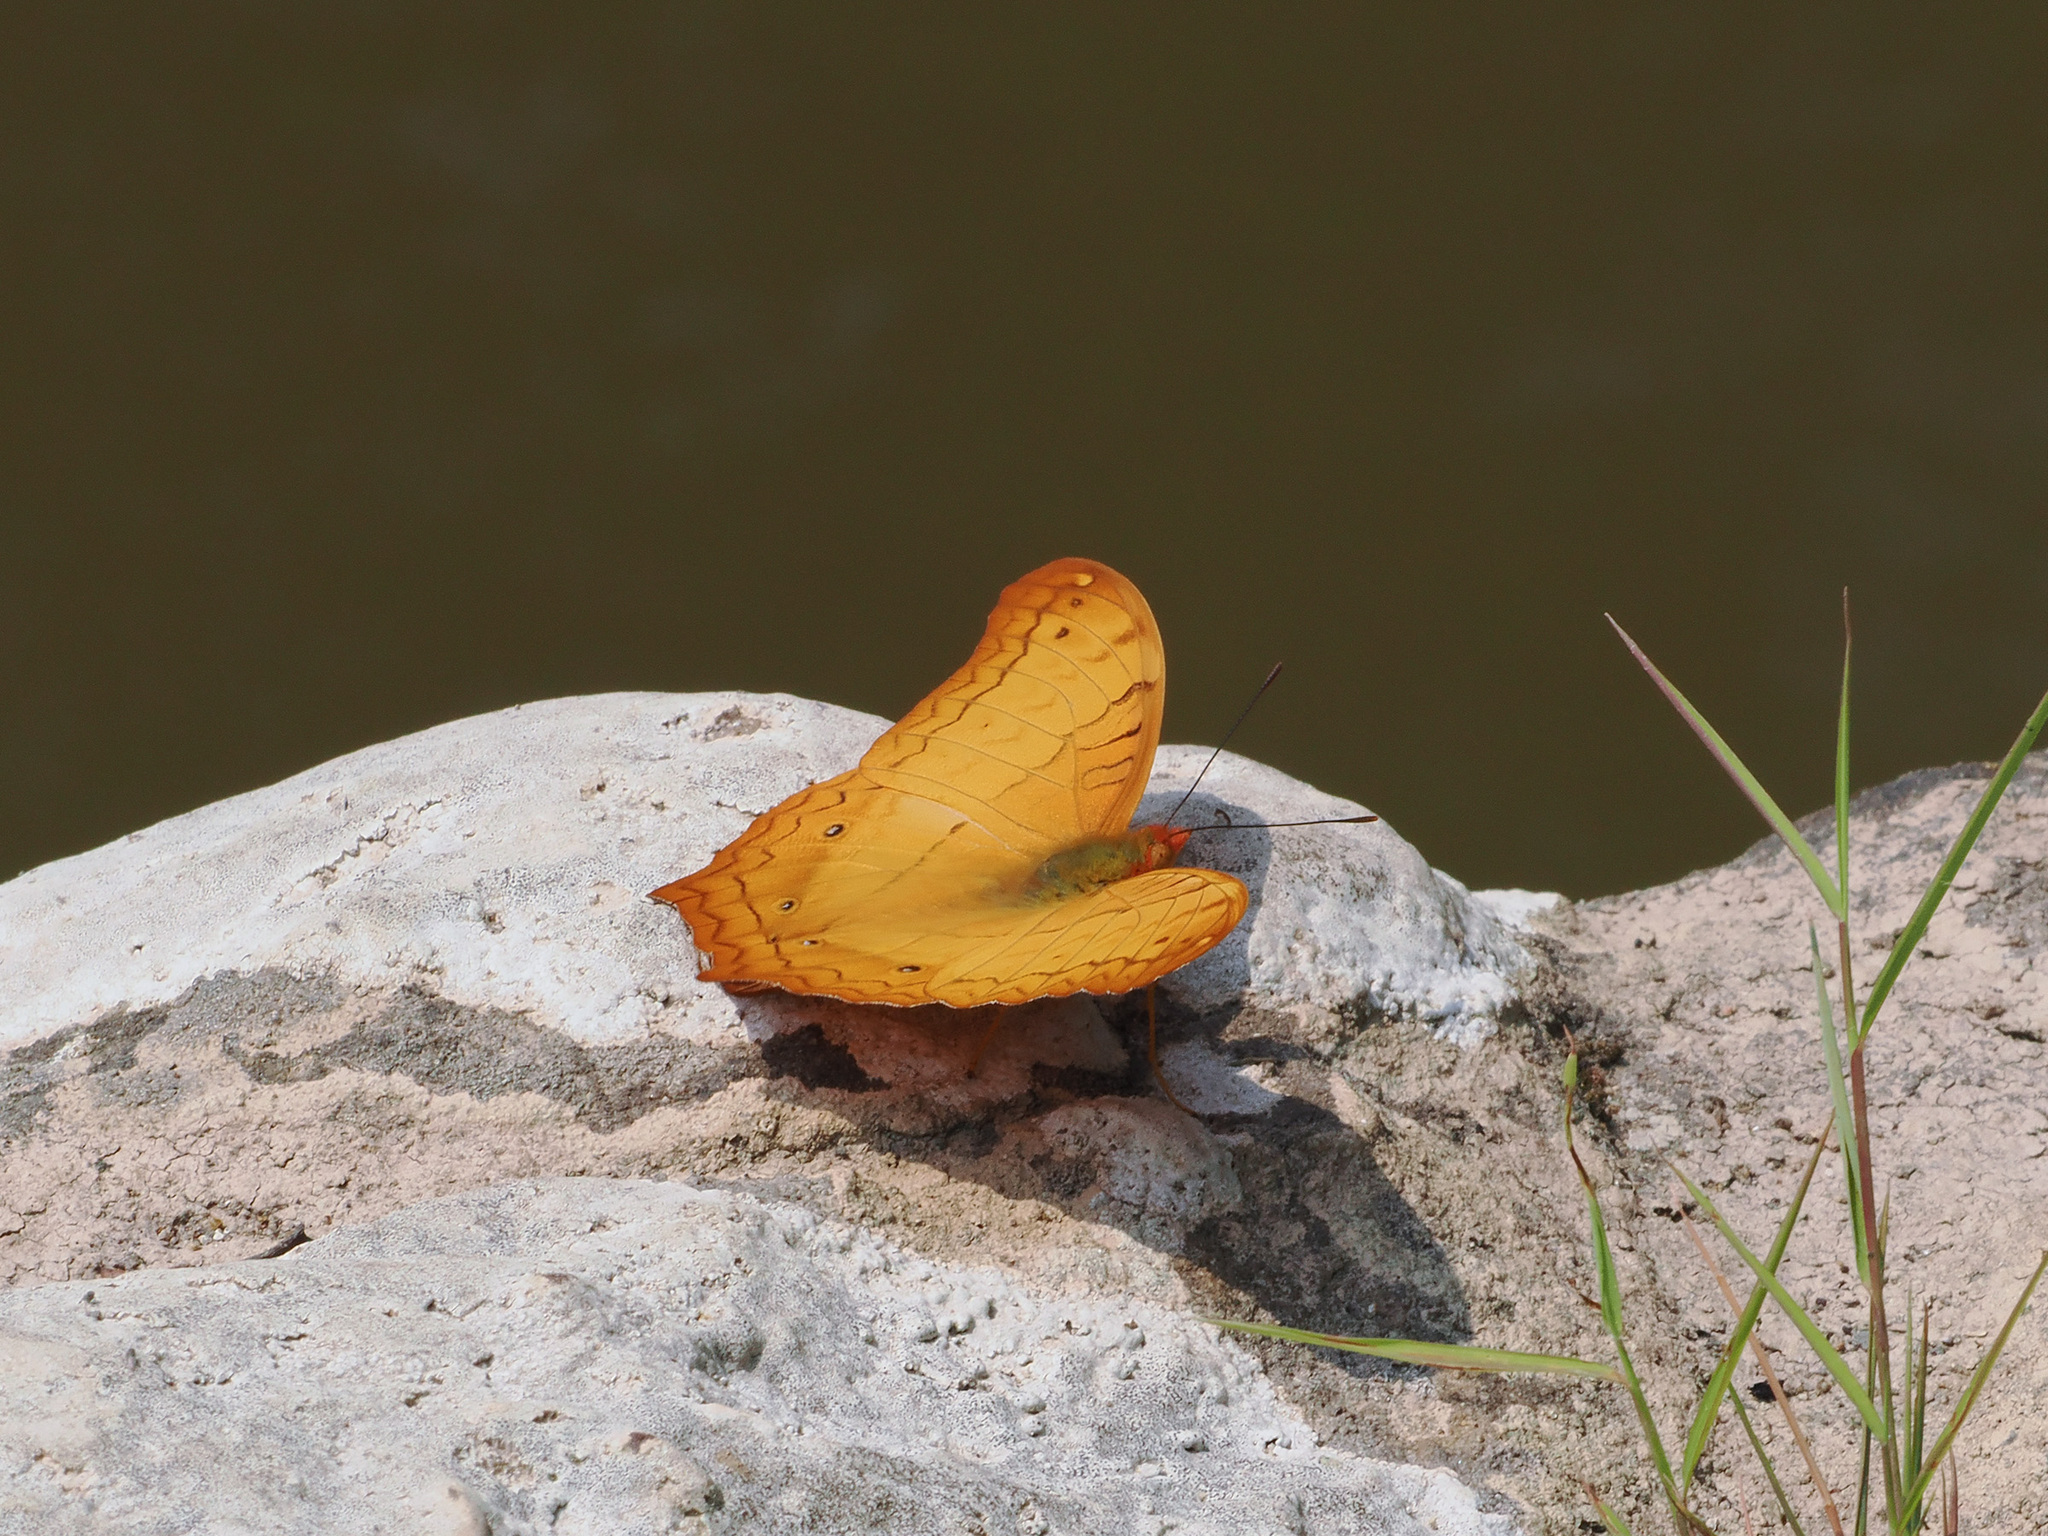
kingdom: Animalia
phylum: Arthropoda
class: Insecta
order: Lepidoptera
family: Nymphalidae
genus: Vindula
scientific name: Vindula erota
